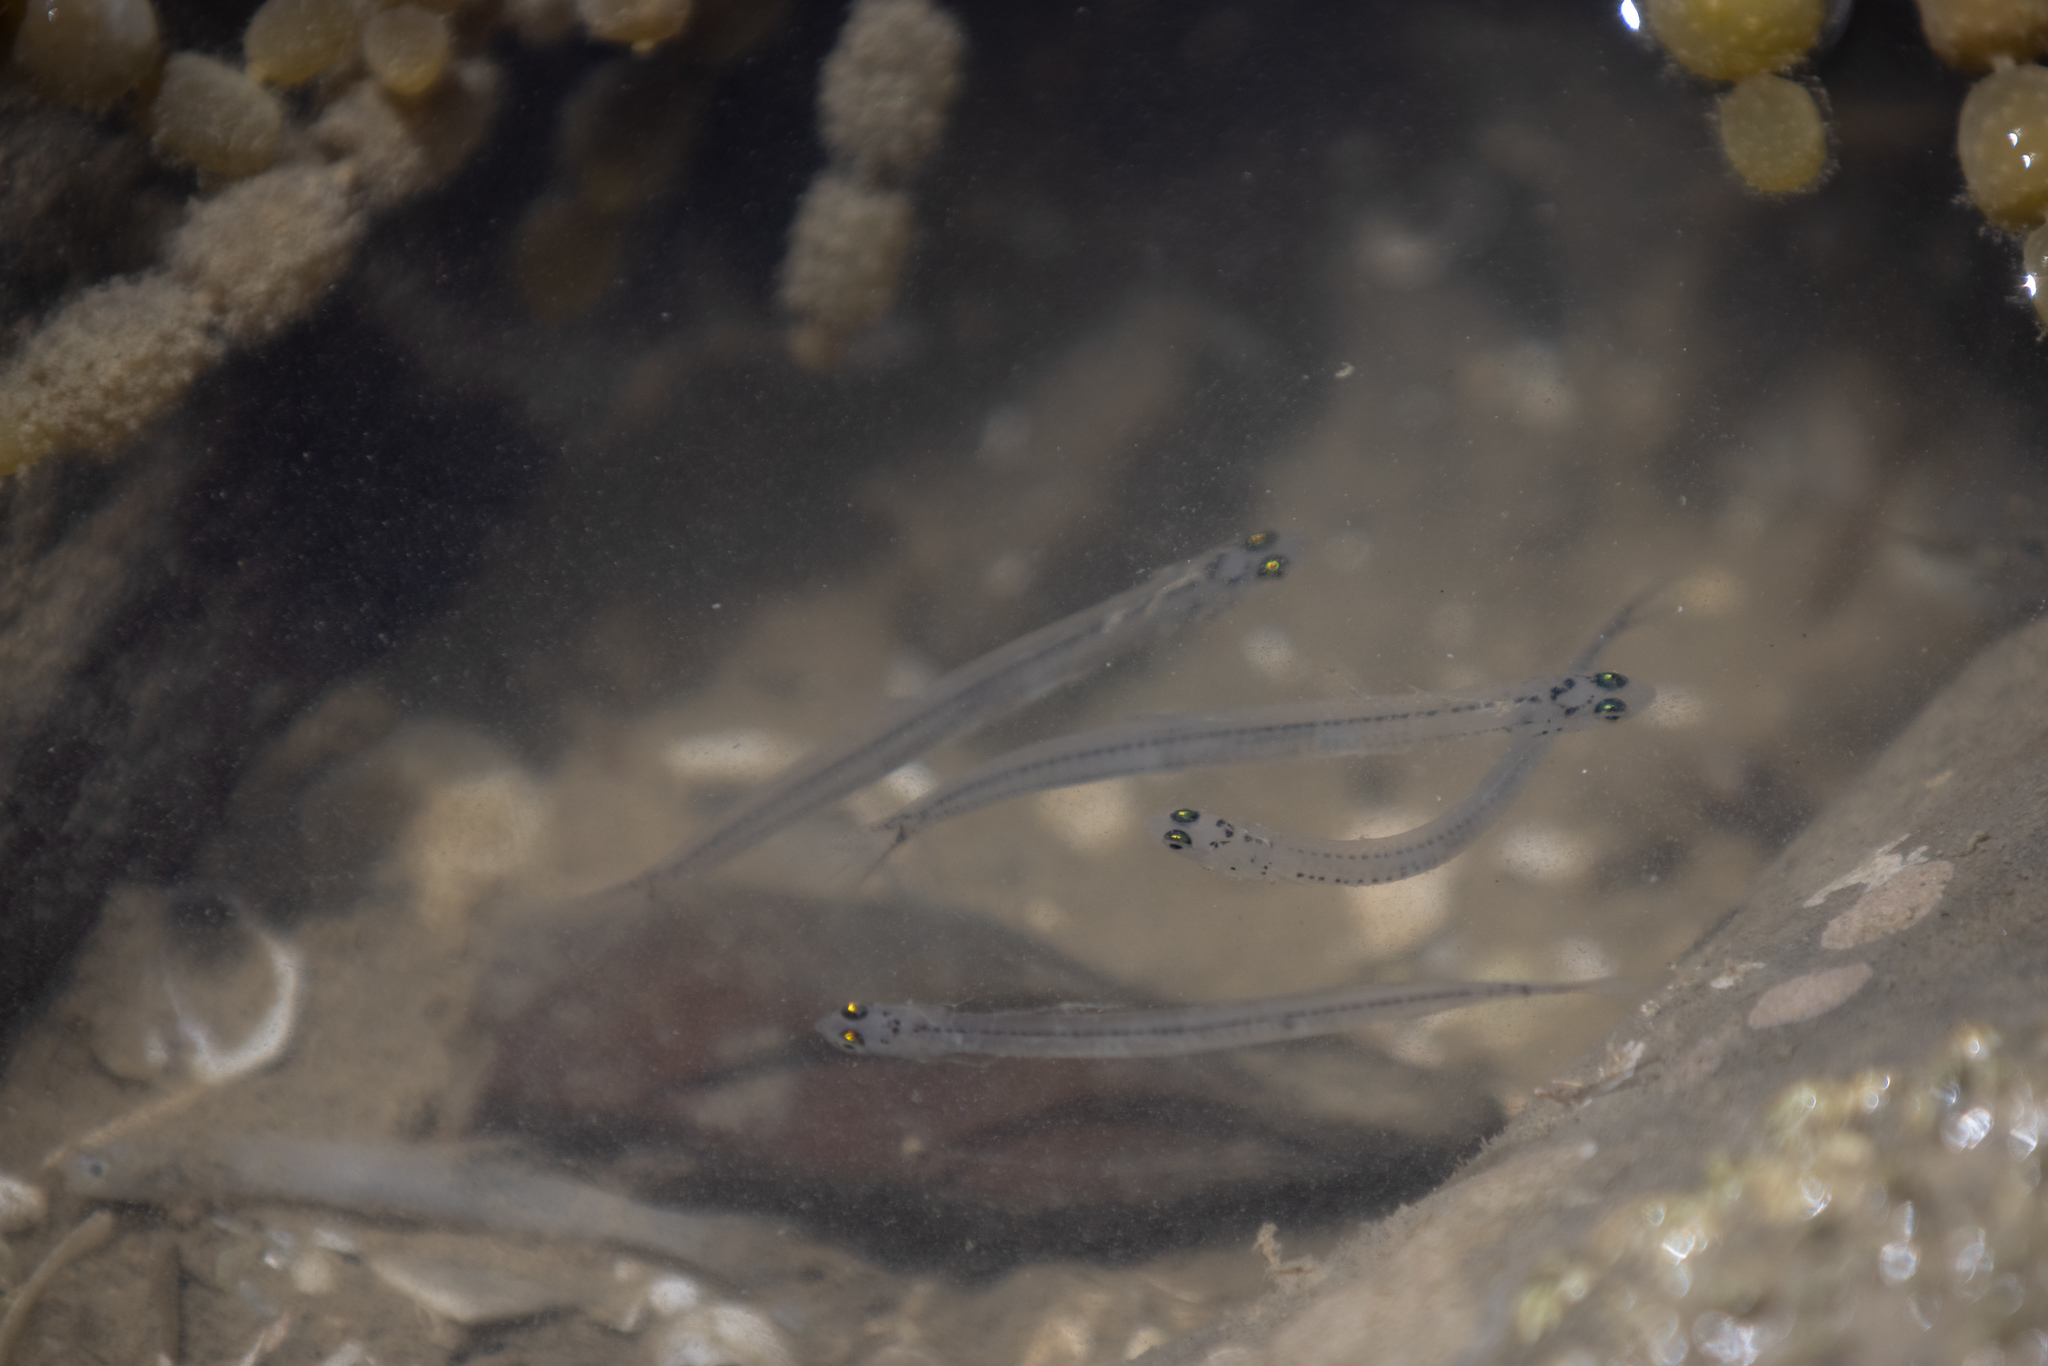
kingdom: Animalia
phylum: Chordata
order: Osmeriformes
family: Galaxiidae
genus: Galaxias
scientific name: Galaxias maculatus
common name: Common galaxias
